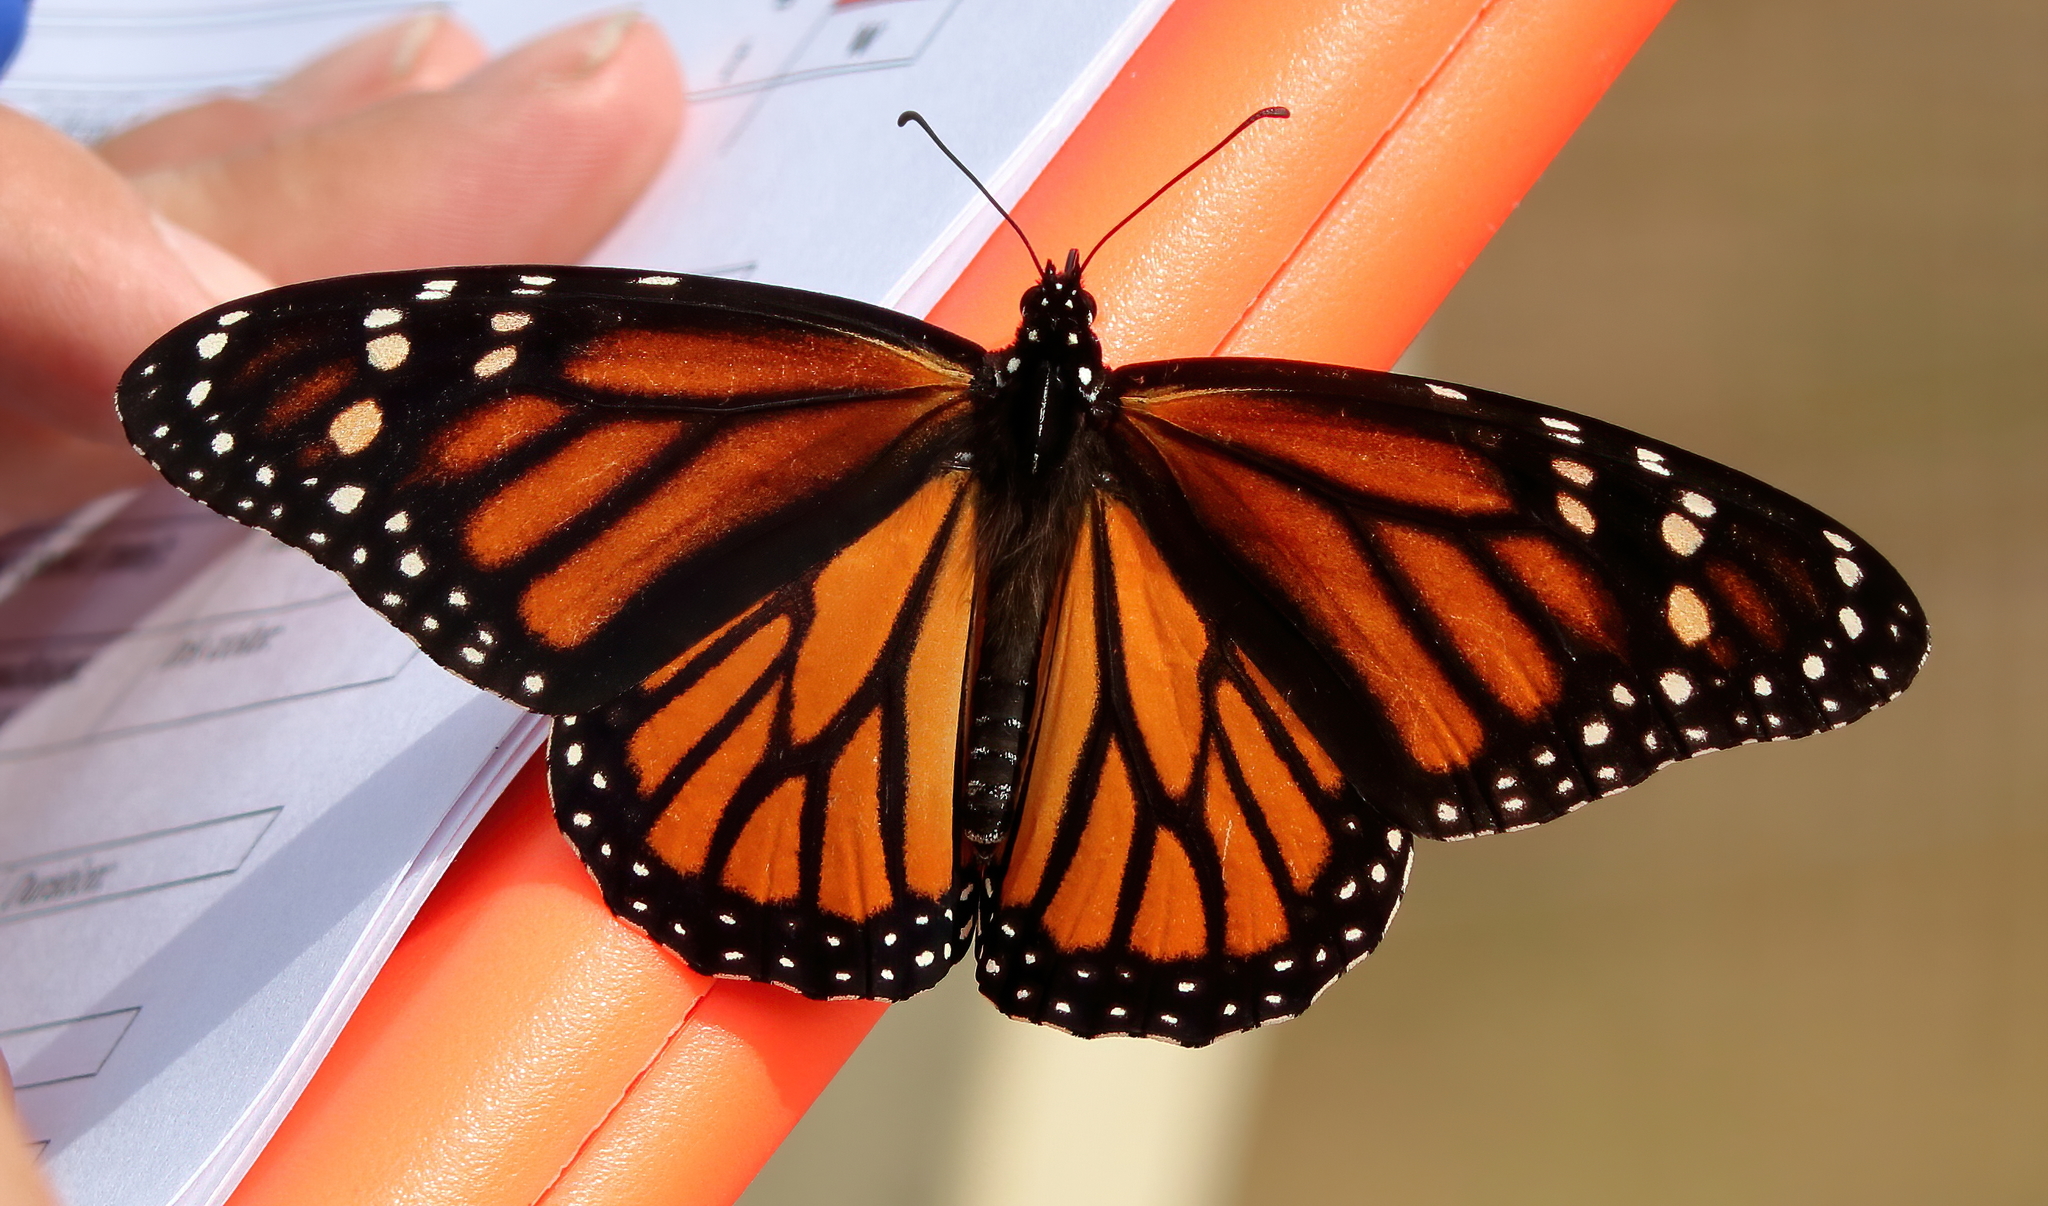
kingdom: Animalia
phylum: Arthropoda
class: Insecta
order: Lepidoptera
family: Nymphalidae
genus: Danaus
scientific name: Danaus plexippus
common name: Monarch
